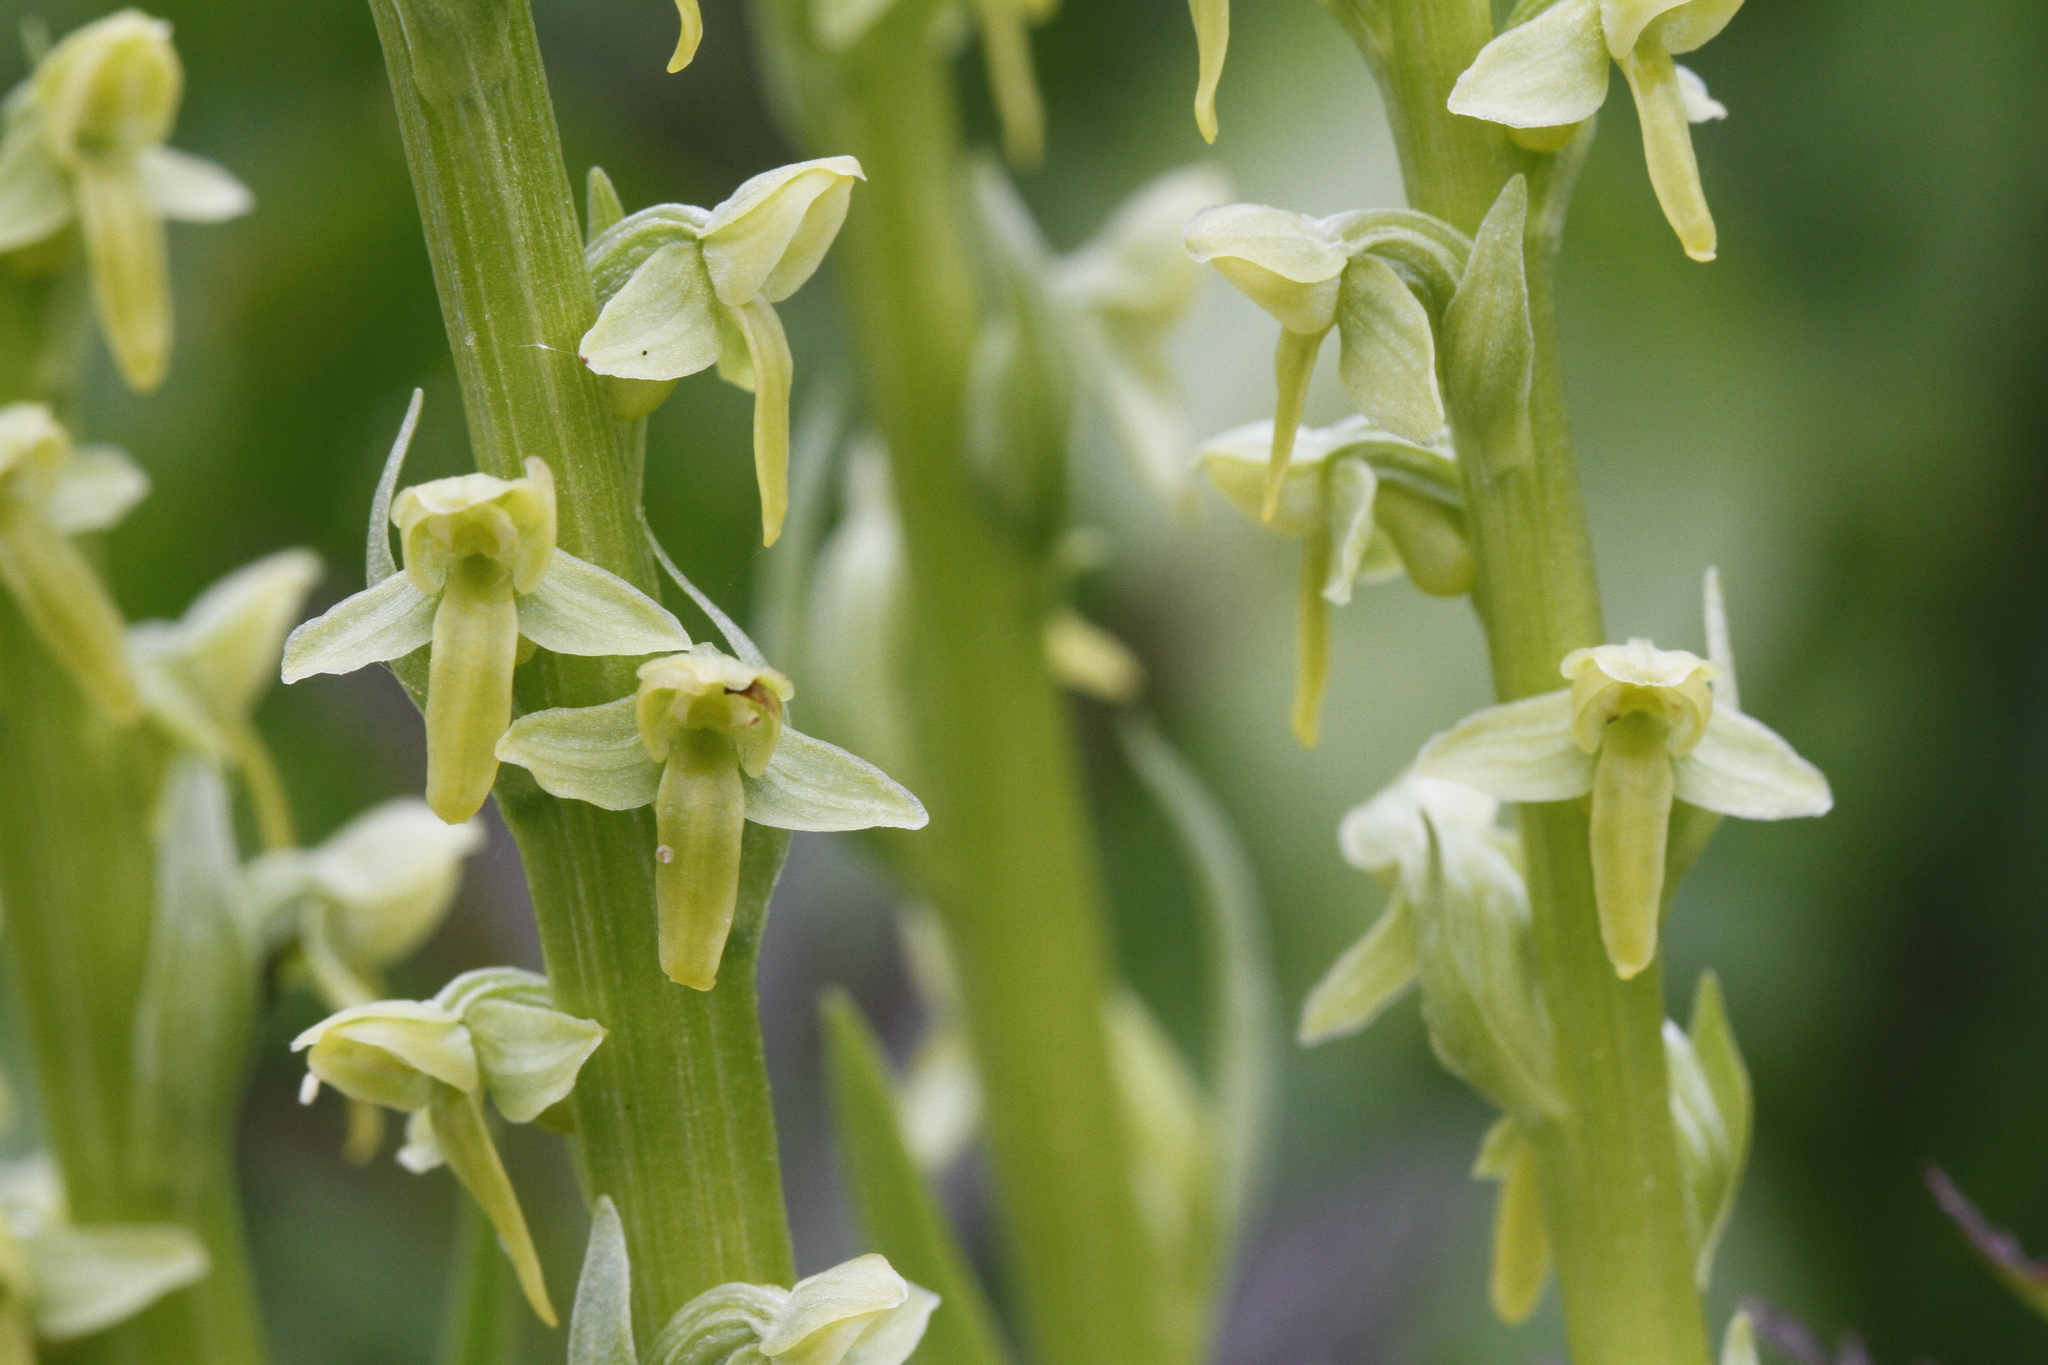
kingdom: Plantae
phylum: Tracheophyta
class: Liliopsida
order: Asparagales
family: Orchidaceae
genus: Platanthera
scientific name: Platanthera stricta
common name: Slender bog orchid
